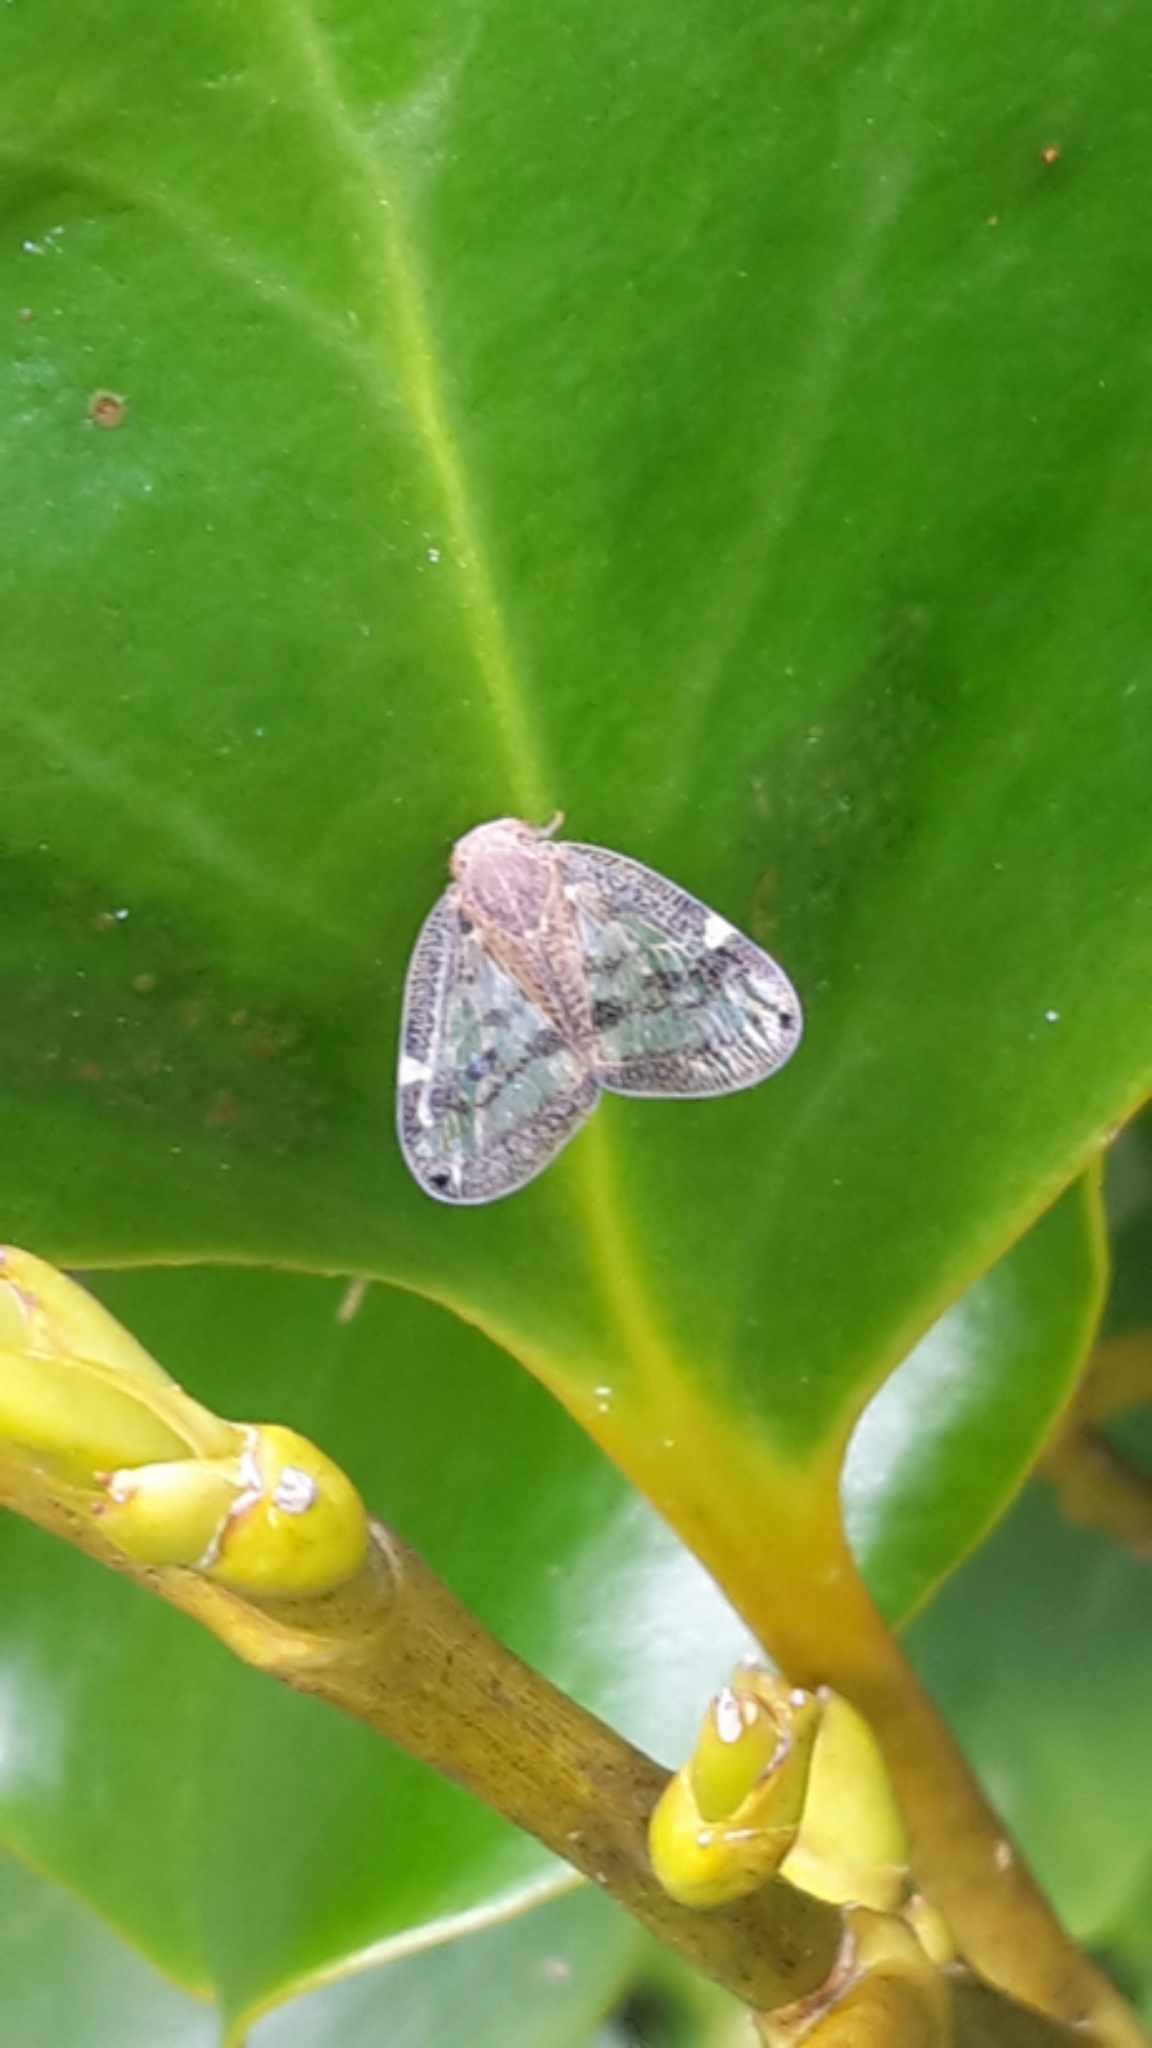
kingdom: Animalia
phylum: Arthropoda
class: Insecta
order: Hemiptera
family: Ricaniidae
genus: Scolypopa
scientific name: Scolypopa australis
